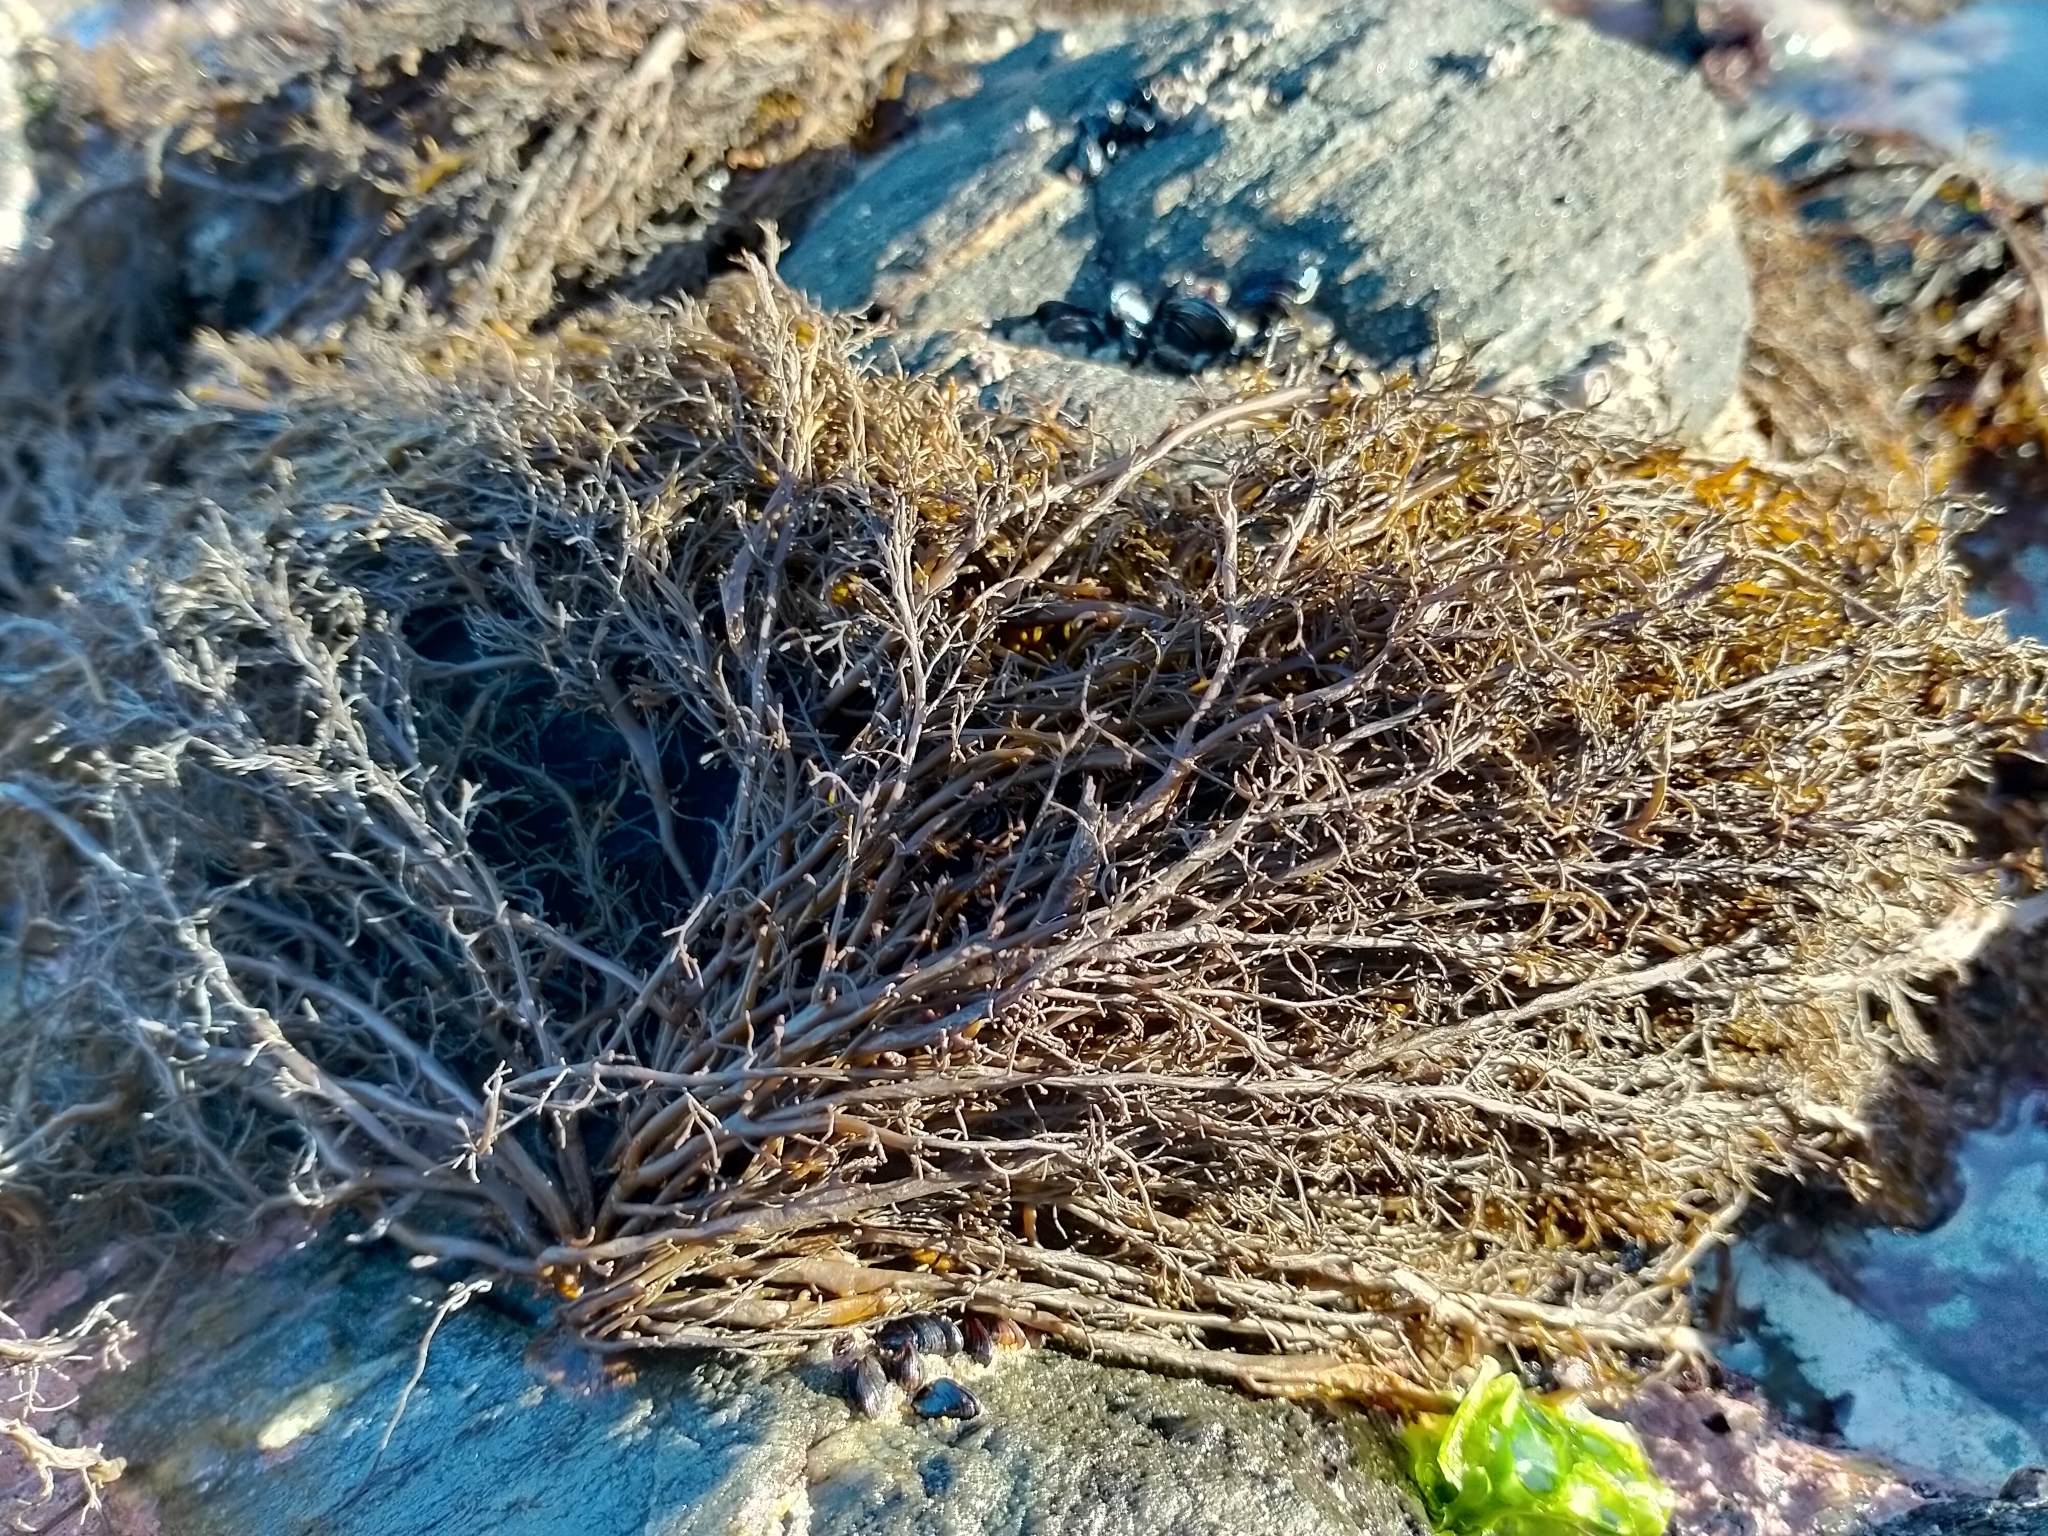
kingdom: Chromista
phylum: Ochrophyta
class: Phaeophyceae
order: Scytothamnales
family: Scytothamnaceae
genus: Scytothamnus
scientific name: Scytothamnus australis
